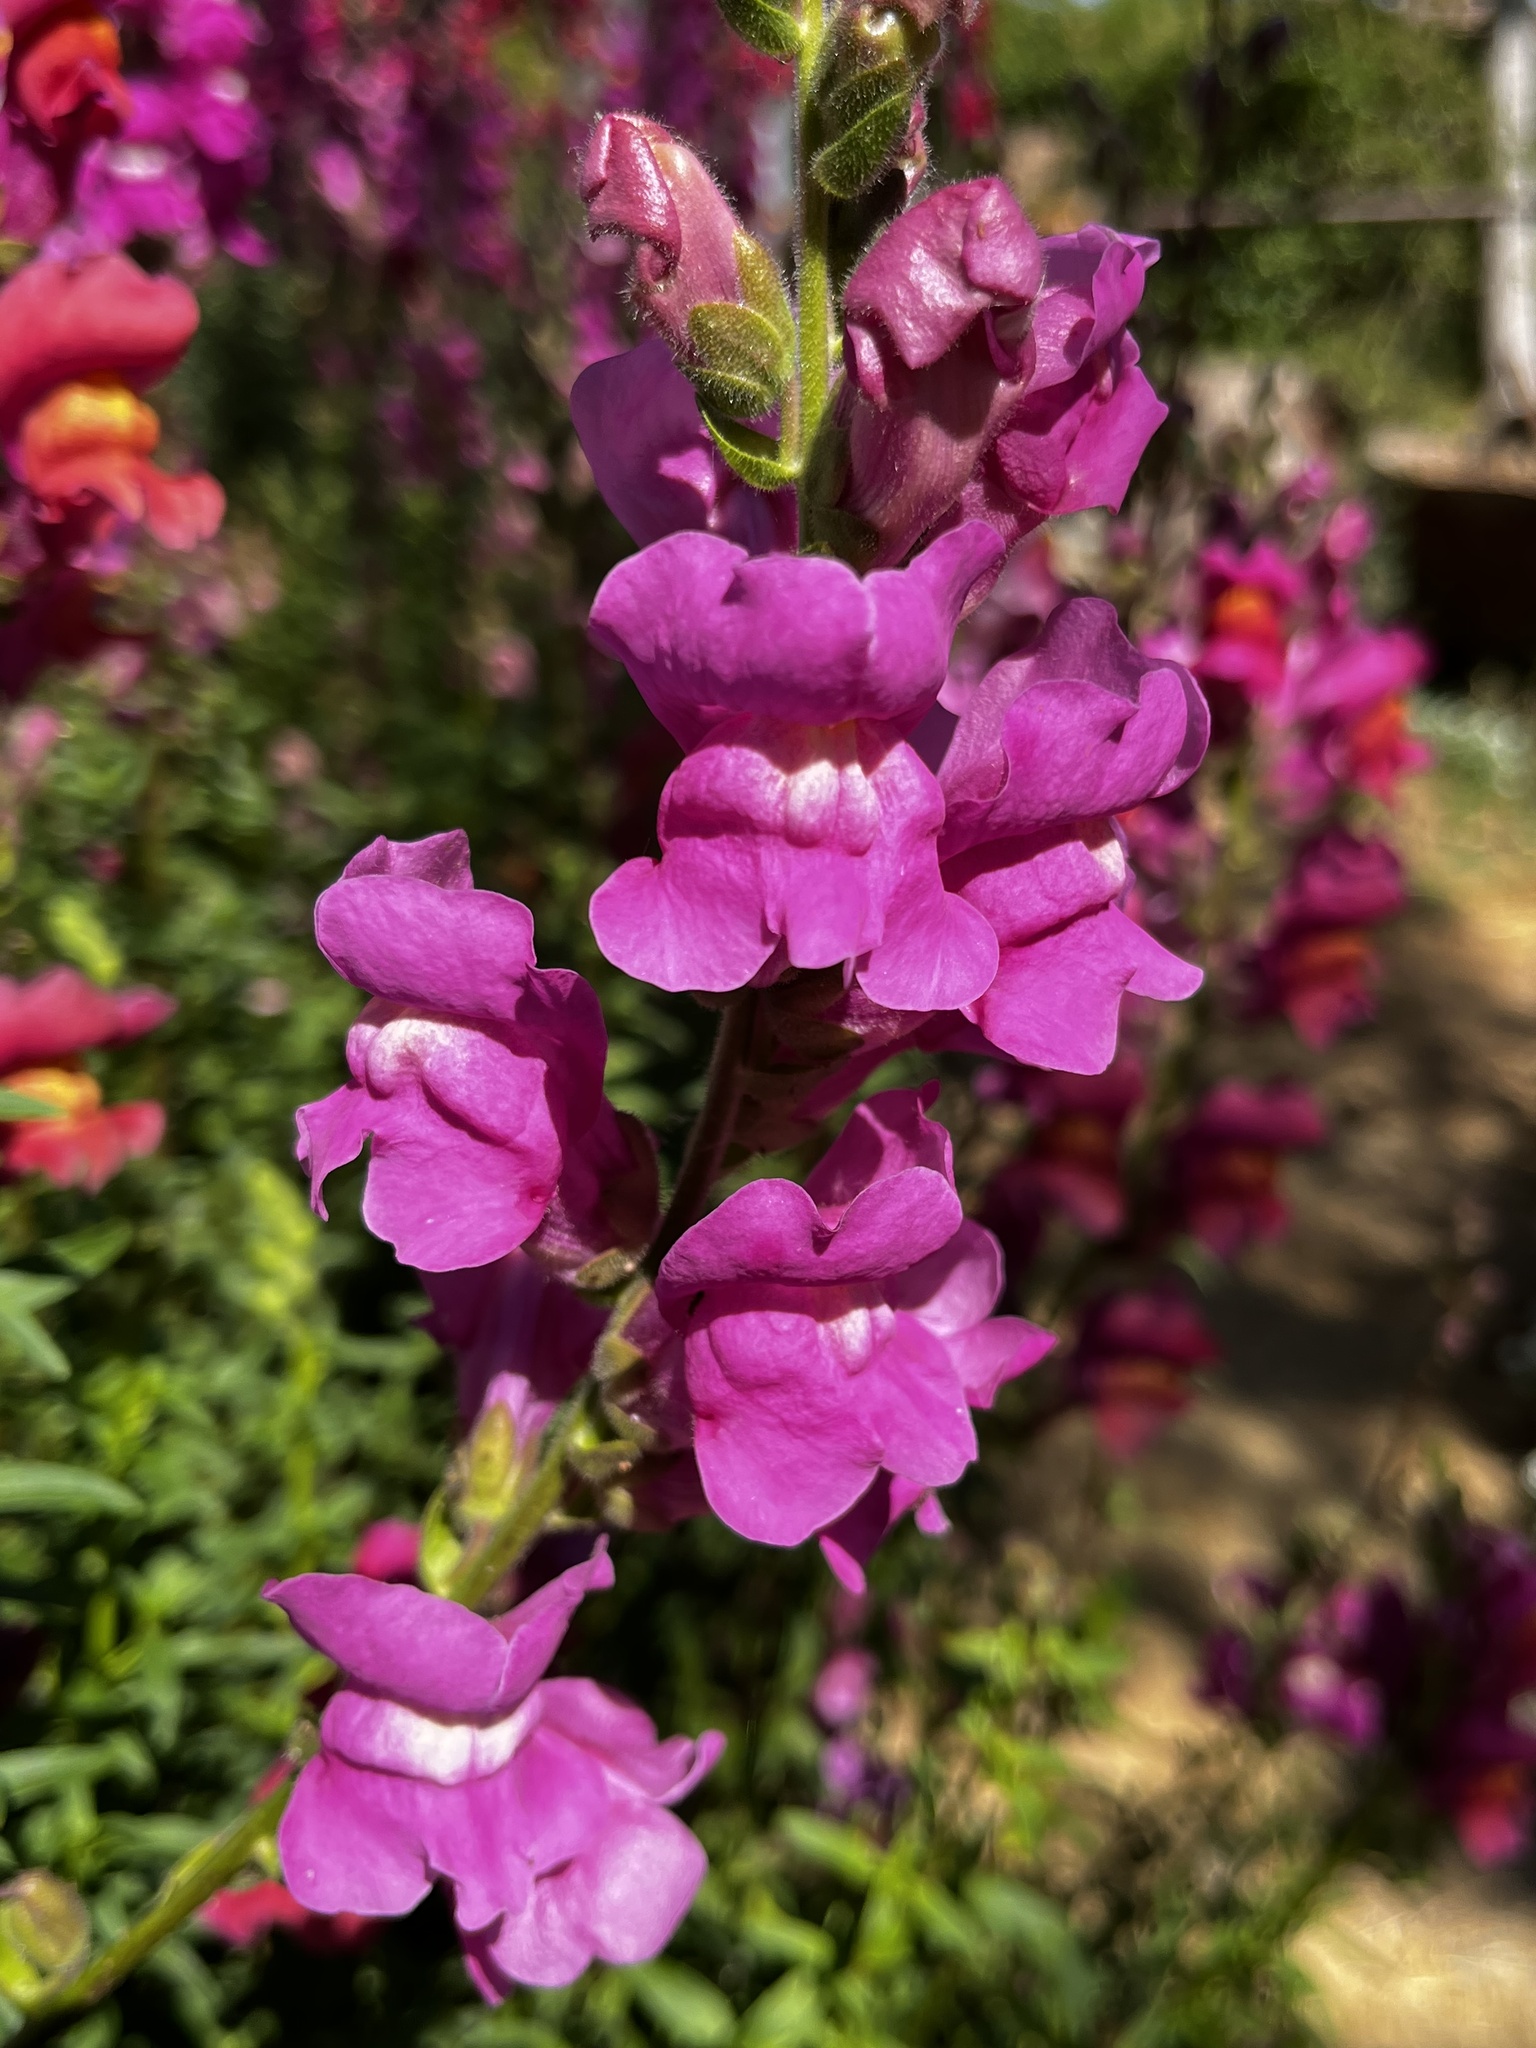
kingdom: Plantae
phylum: Tracheophyta
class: Magnoliopsida
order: Lamiales
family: Plantaginaceae
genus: Antirrhinum
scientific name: Antirrhinum majus
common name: Snapdragon
